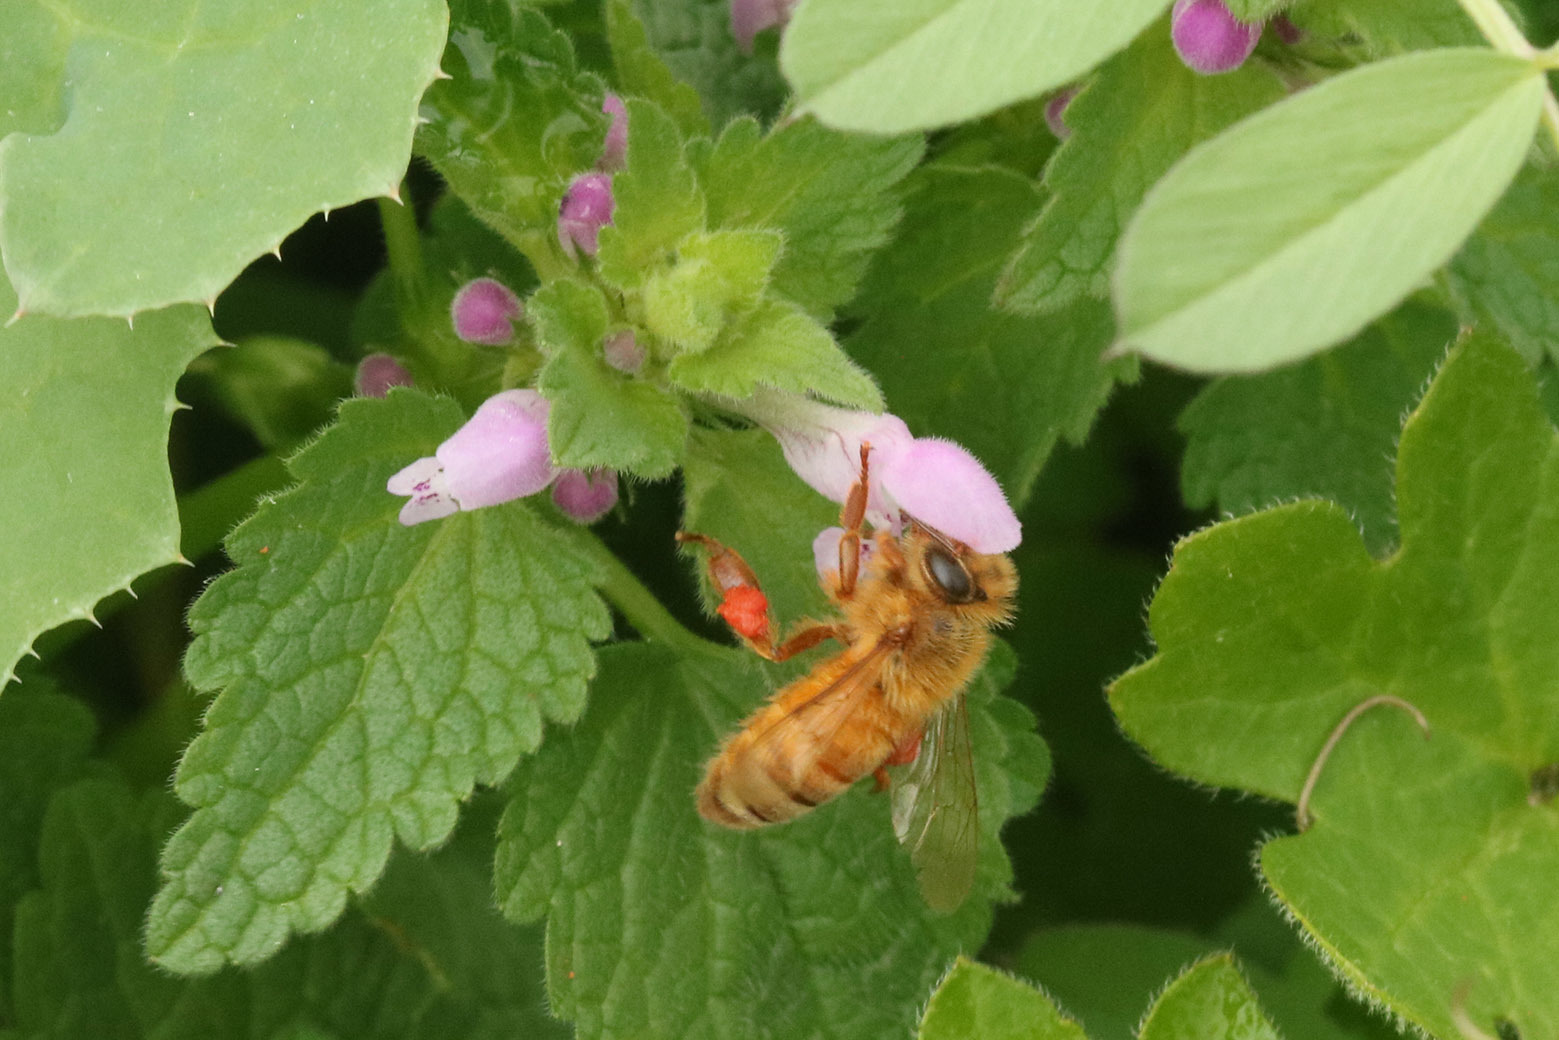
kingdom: Animalia
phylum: Arthropoda
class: Insecta
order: Hymenoptera
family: Apidae
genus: Apis
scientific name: Apis mellifera
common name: Honey bee
